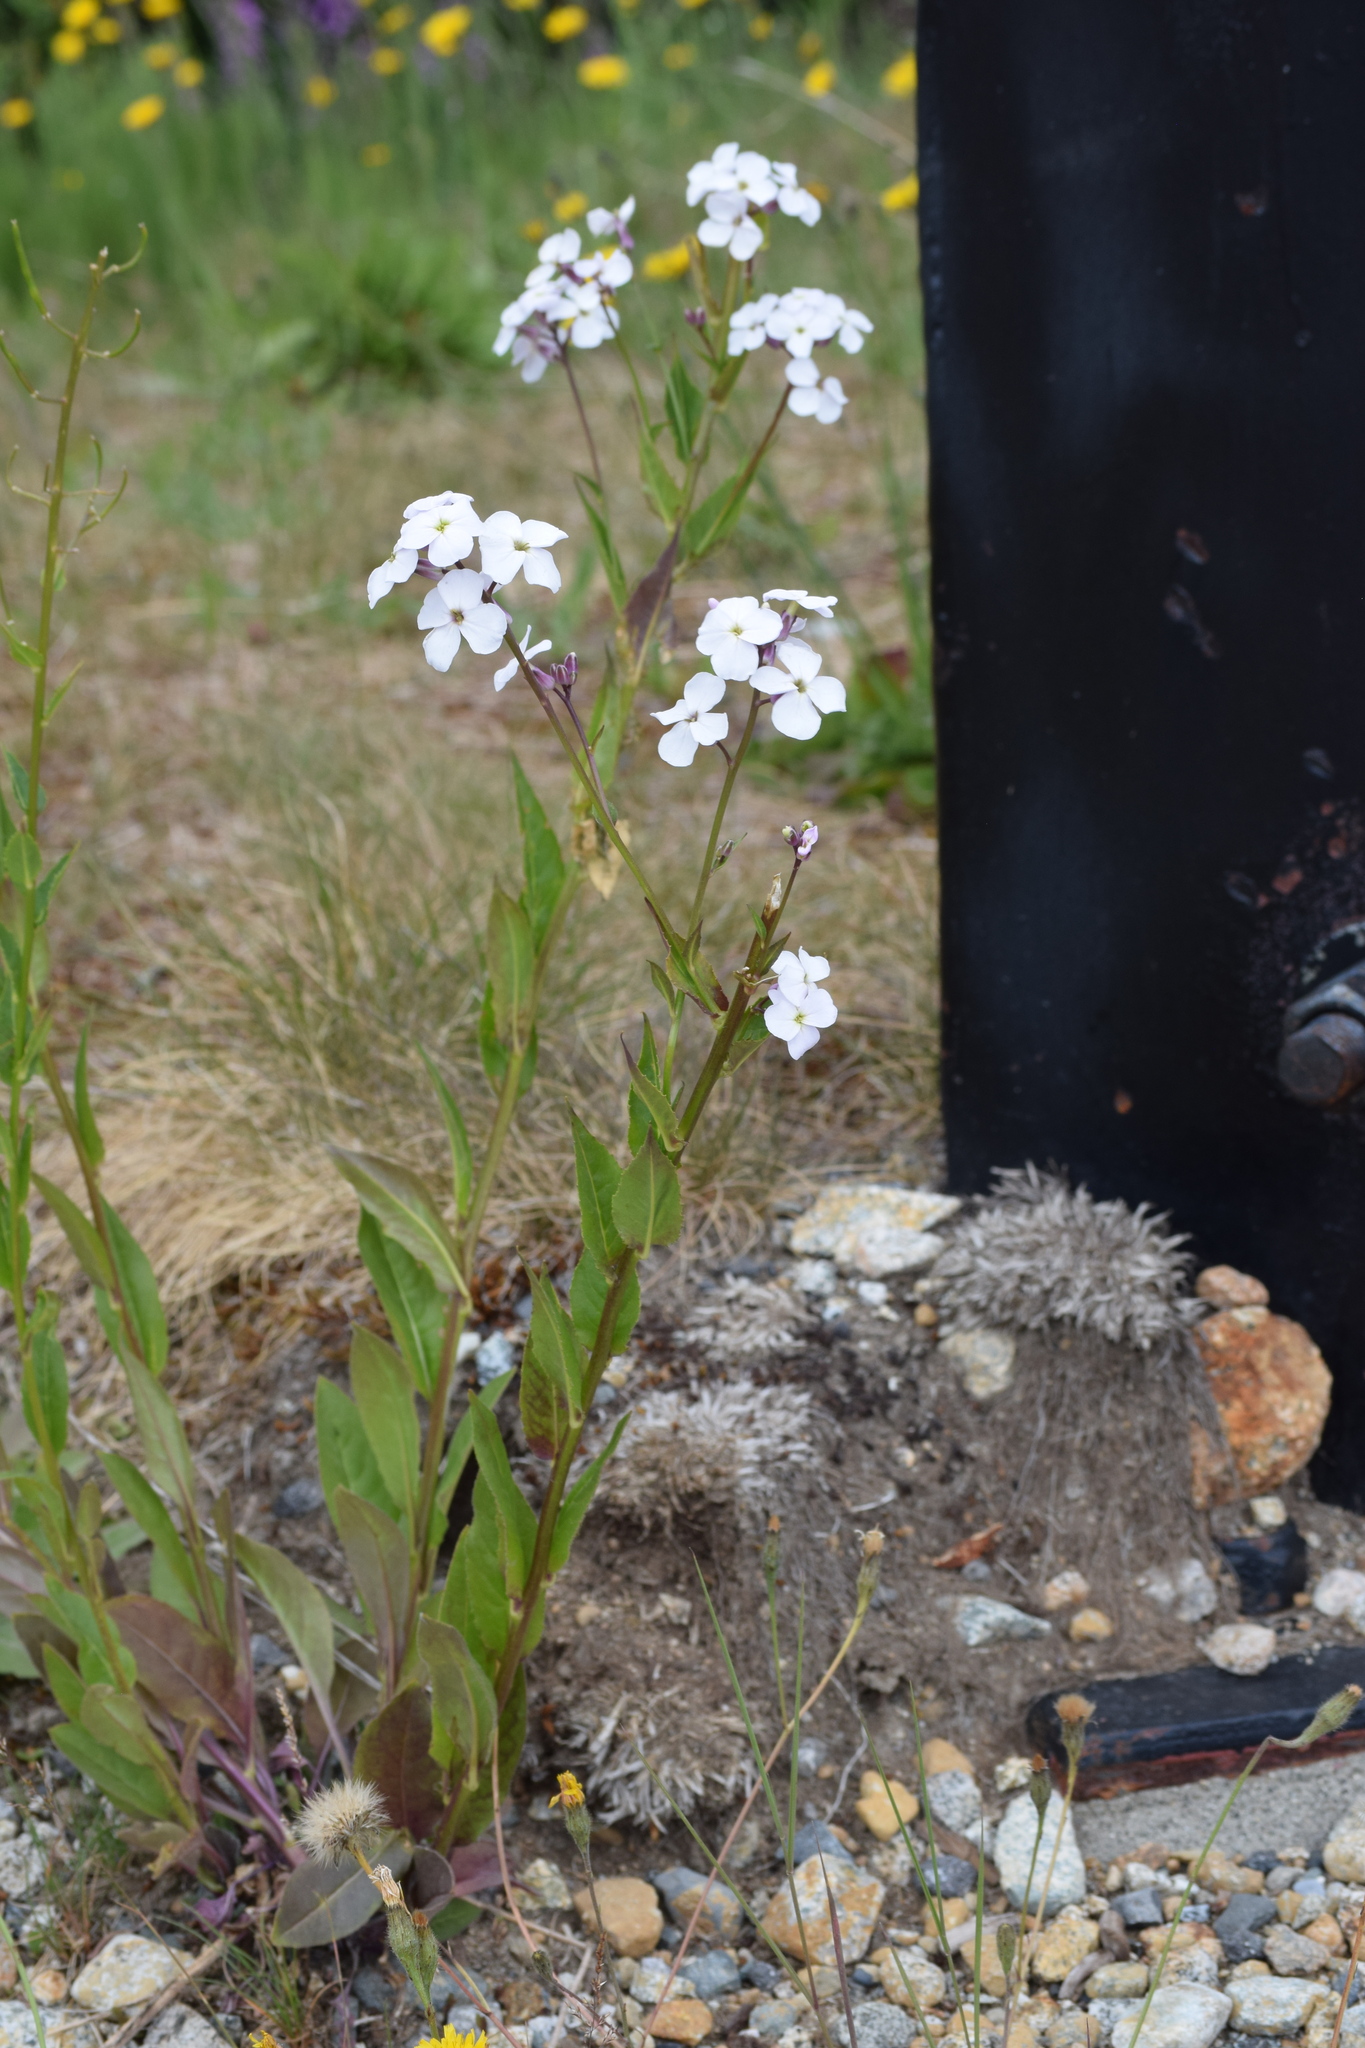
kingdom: Plantae
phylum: Tracheophyta
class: Magnoliopsida
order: Brassicales
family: Brassicaceae
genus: Hesperis
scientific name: Hesperis matronalis
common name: Dame's-violet
